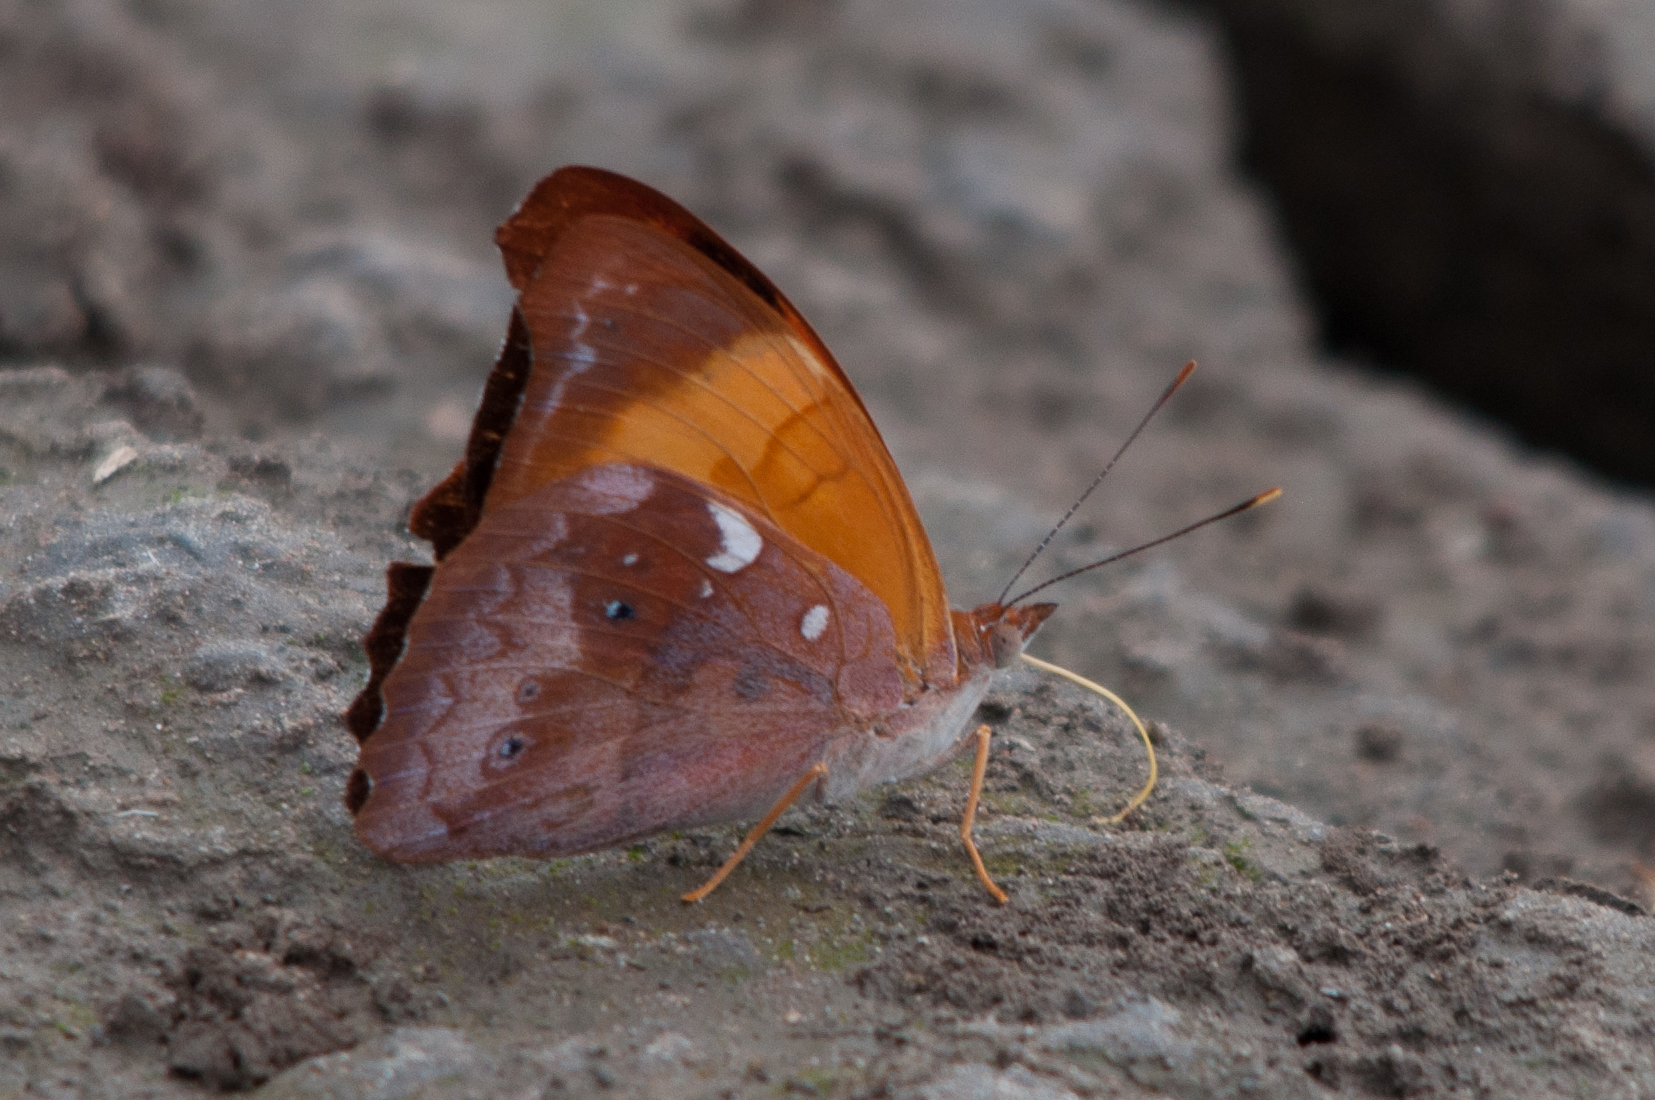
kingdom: Animalia
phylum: Arthropoda
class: Insecta
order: Lepidoptera
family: Nymphalidae
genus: Temenis
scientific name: Temenis laothoe
